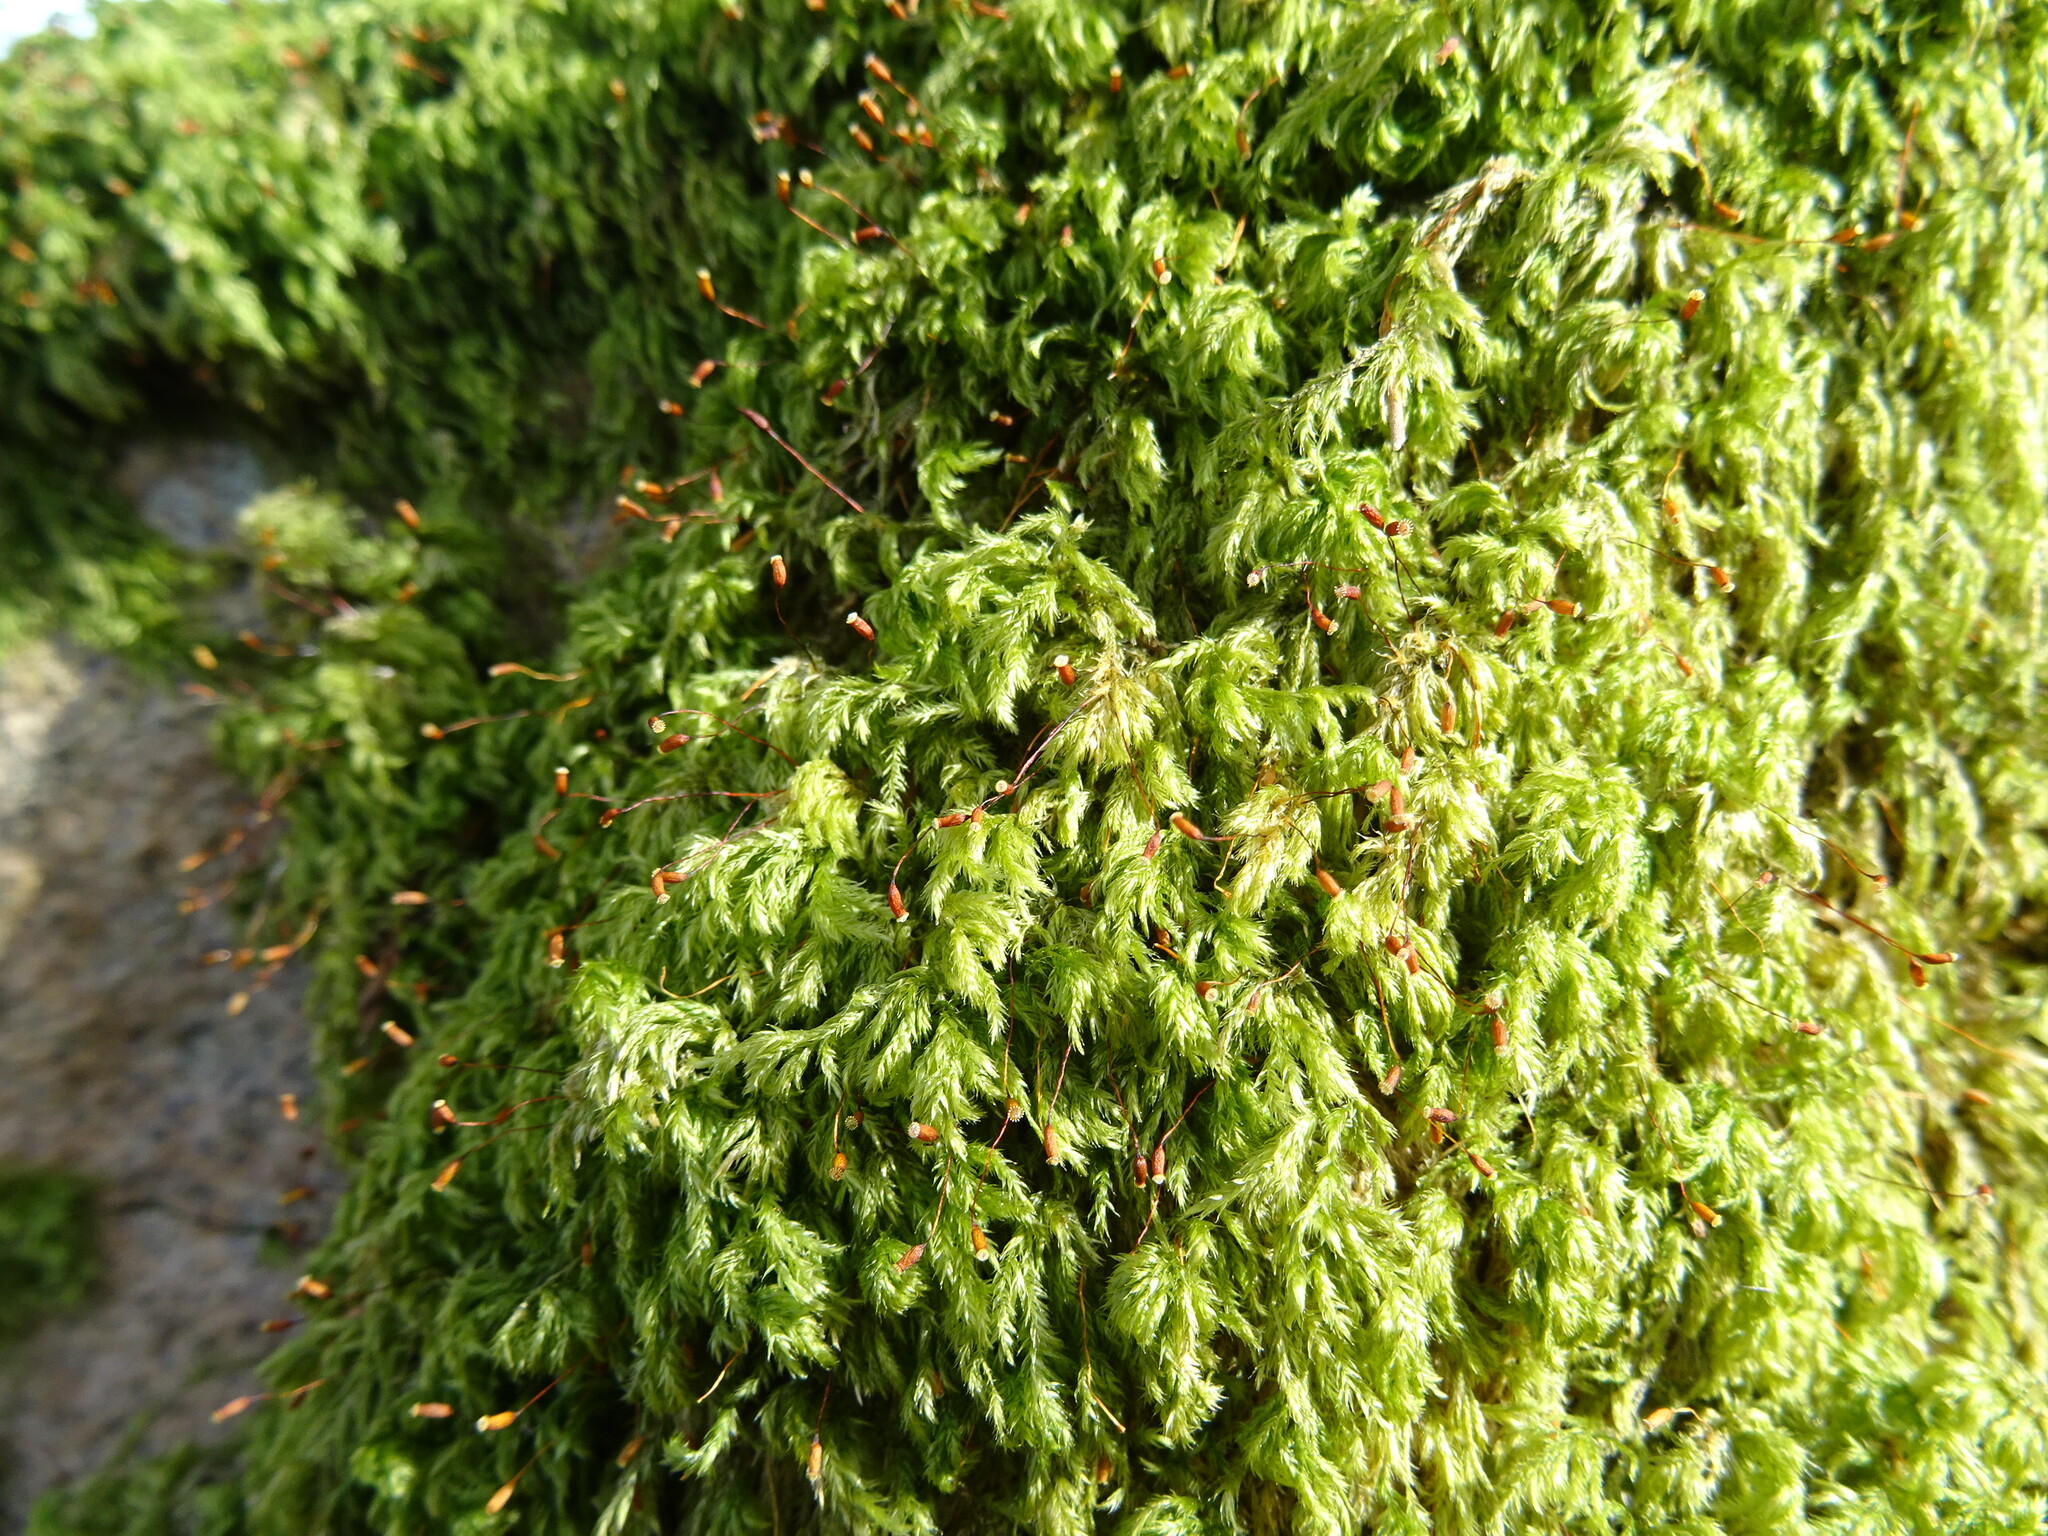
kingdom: Plantae
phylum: Bryophyta
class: Bryopsida
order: Hypnales
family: Lembophyllaceae
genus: Pseudisothecium
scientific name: Pseudisothecium myosuroides
